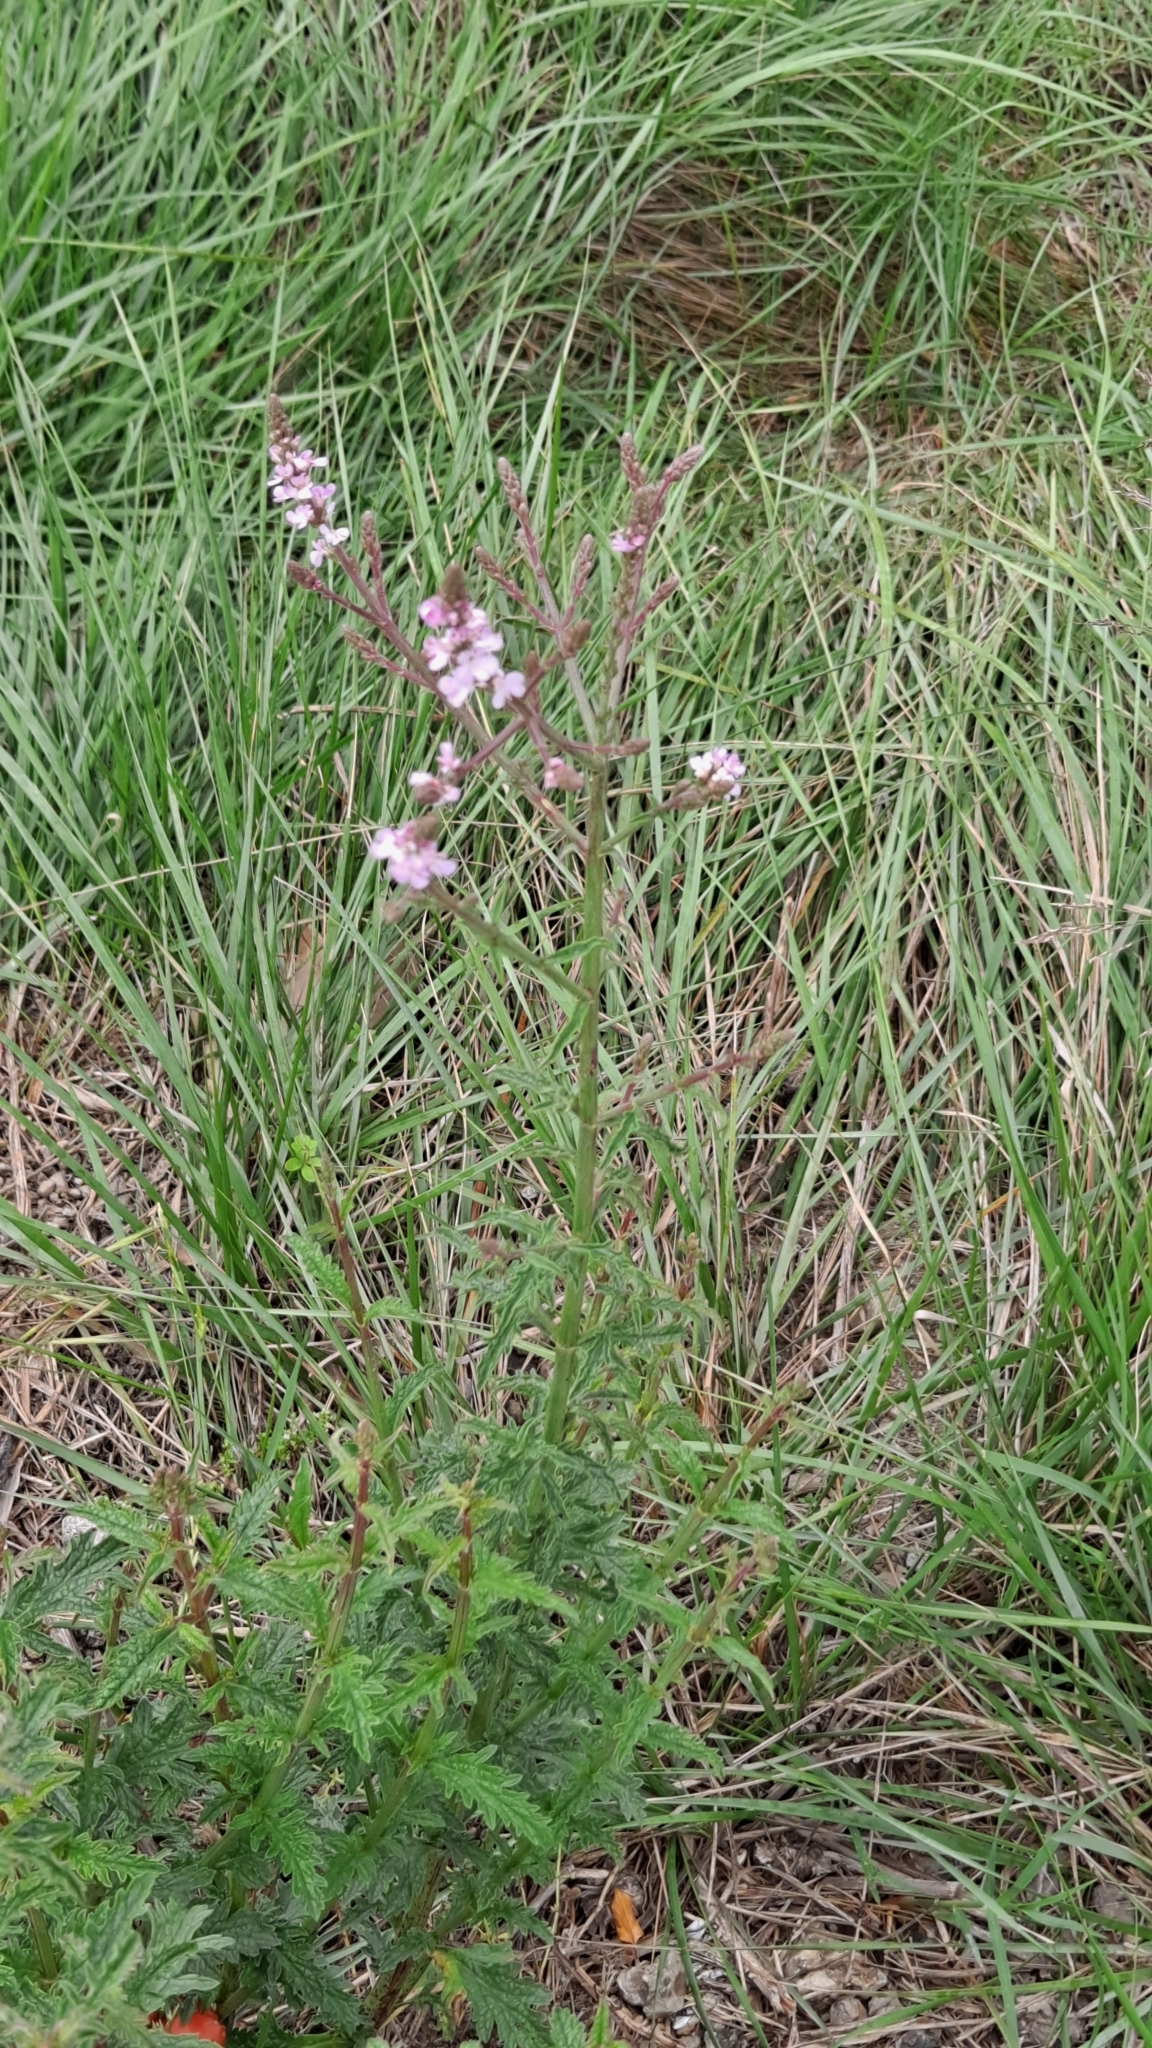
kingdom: Plantae
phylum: Tracheophyta
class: Magnoliopsida
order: Lamiales
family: Verbenaceae
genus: Verbena
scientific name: Verbena officinalis
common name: Vervain
